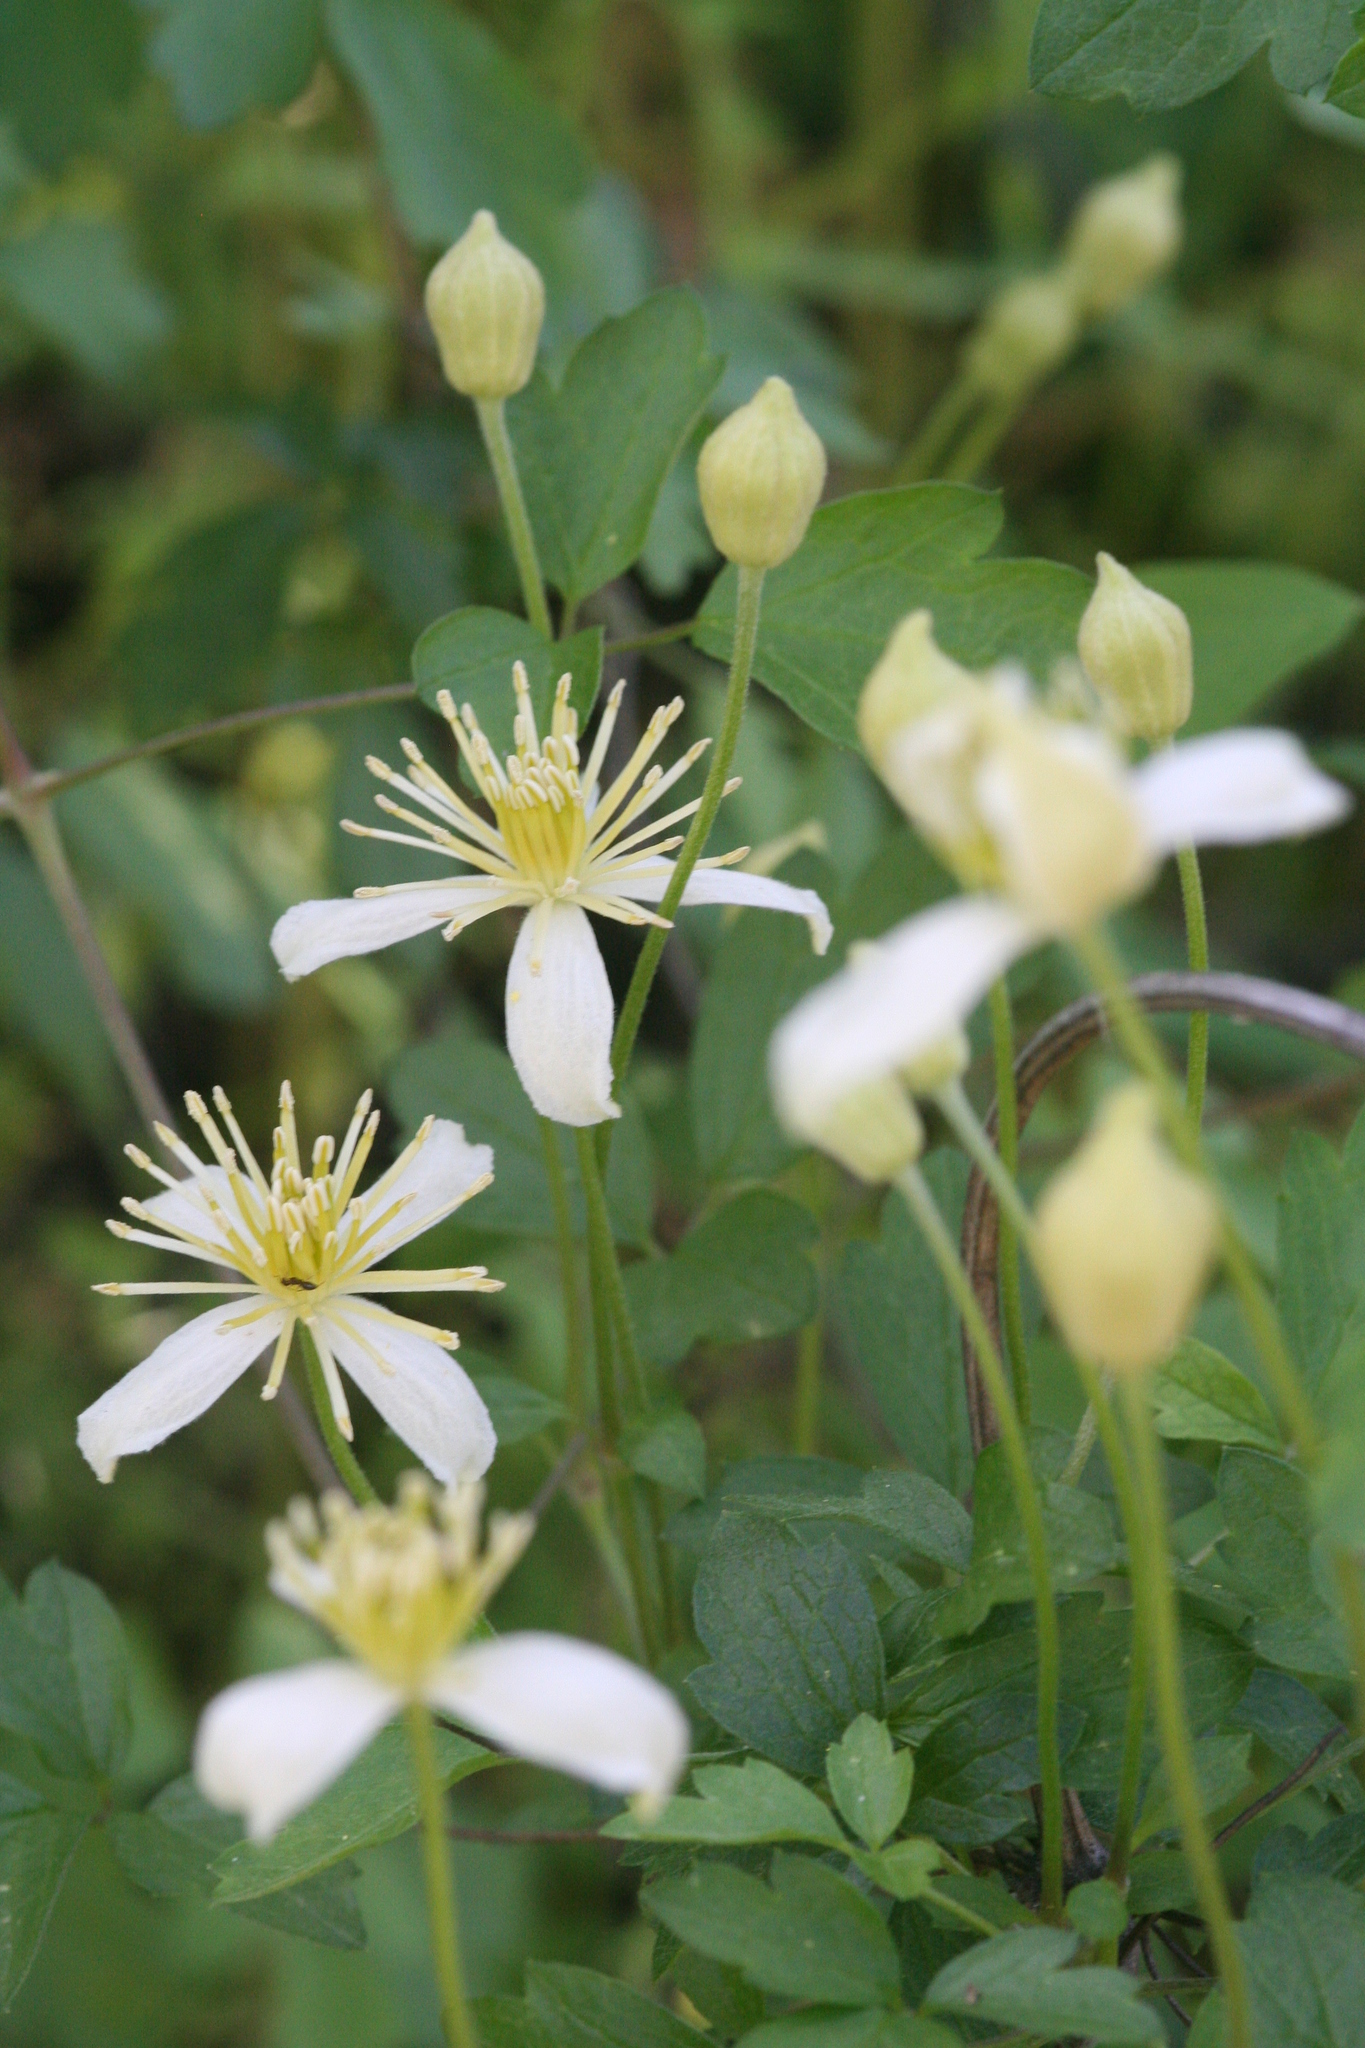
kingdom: Plantae
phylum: Tracheophyta
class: Magnoliopsida
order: Ranunculales
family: Ranunculaceae
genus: Clematis
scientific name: Clematis lasiantha
